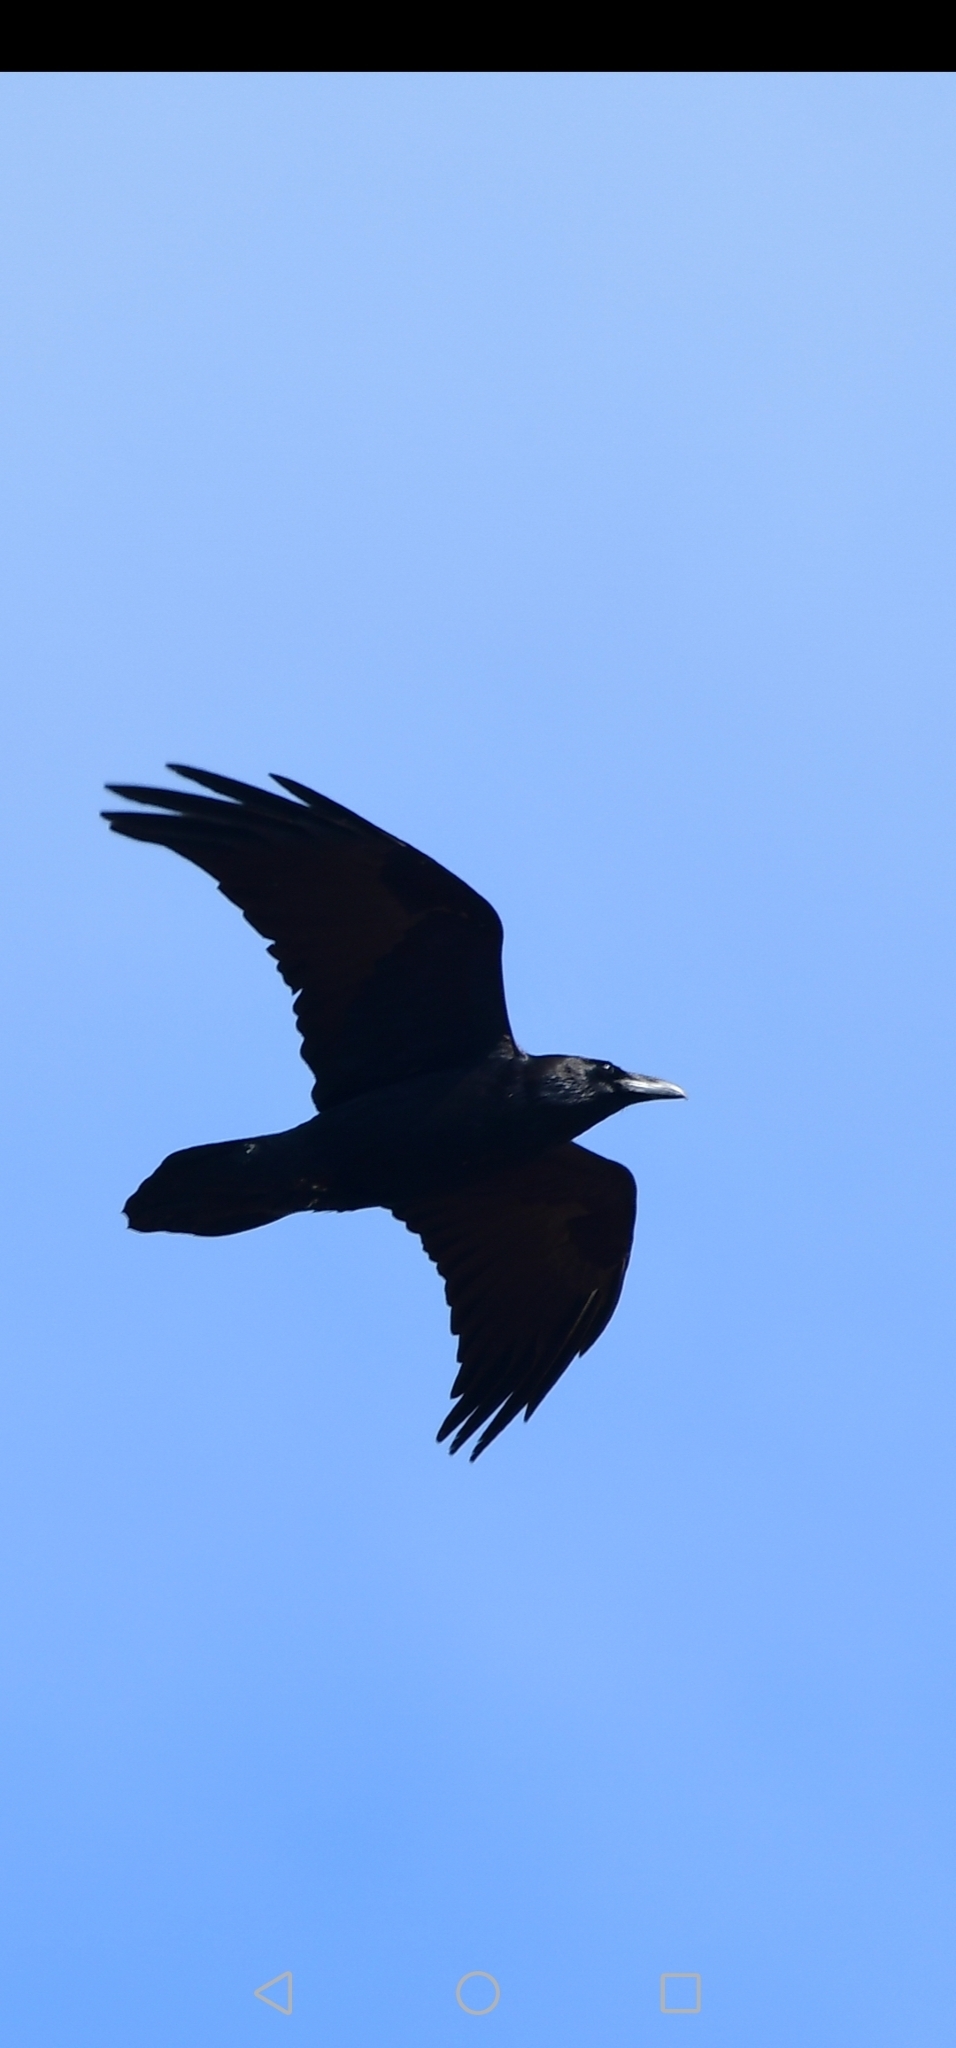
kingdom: Animalia
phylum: Chordata
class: Aves
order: Passeriformes
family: Corvidae
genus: Corvus
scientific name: Corvus corax
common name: Common raven
